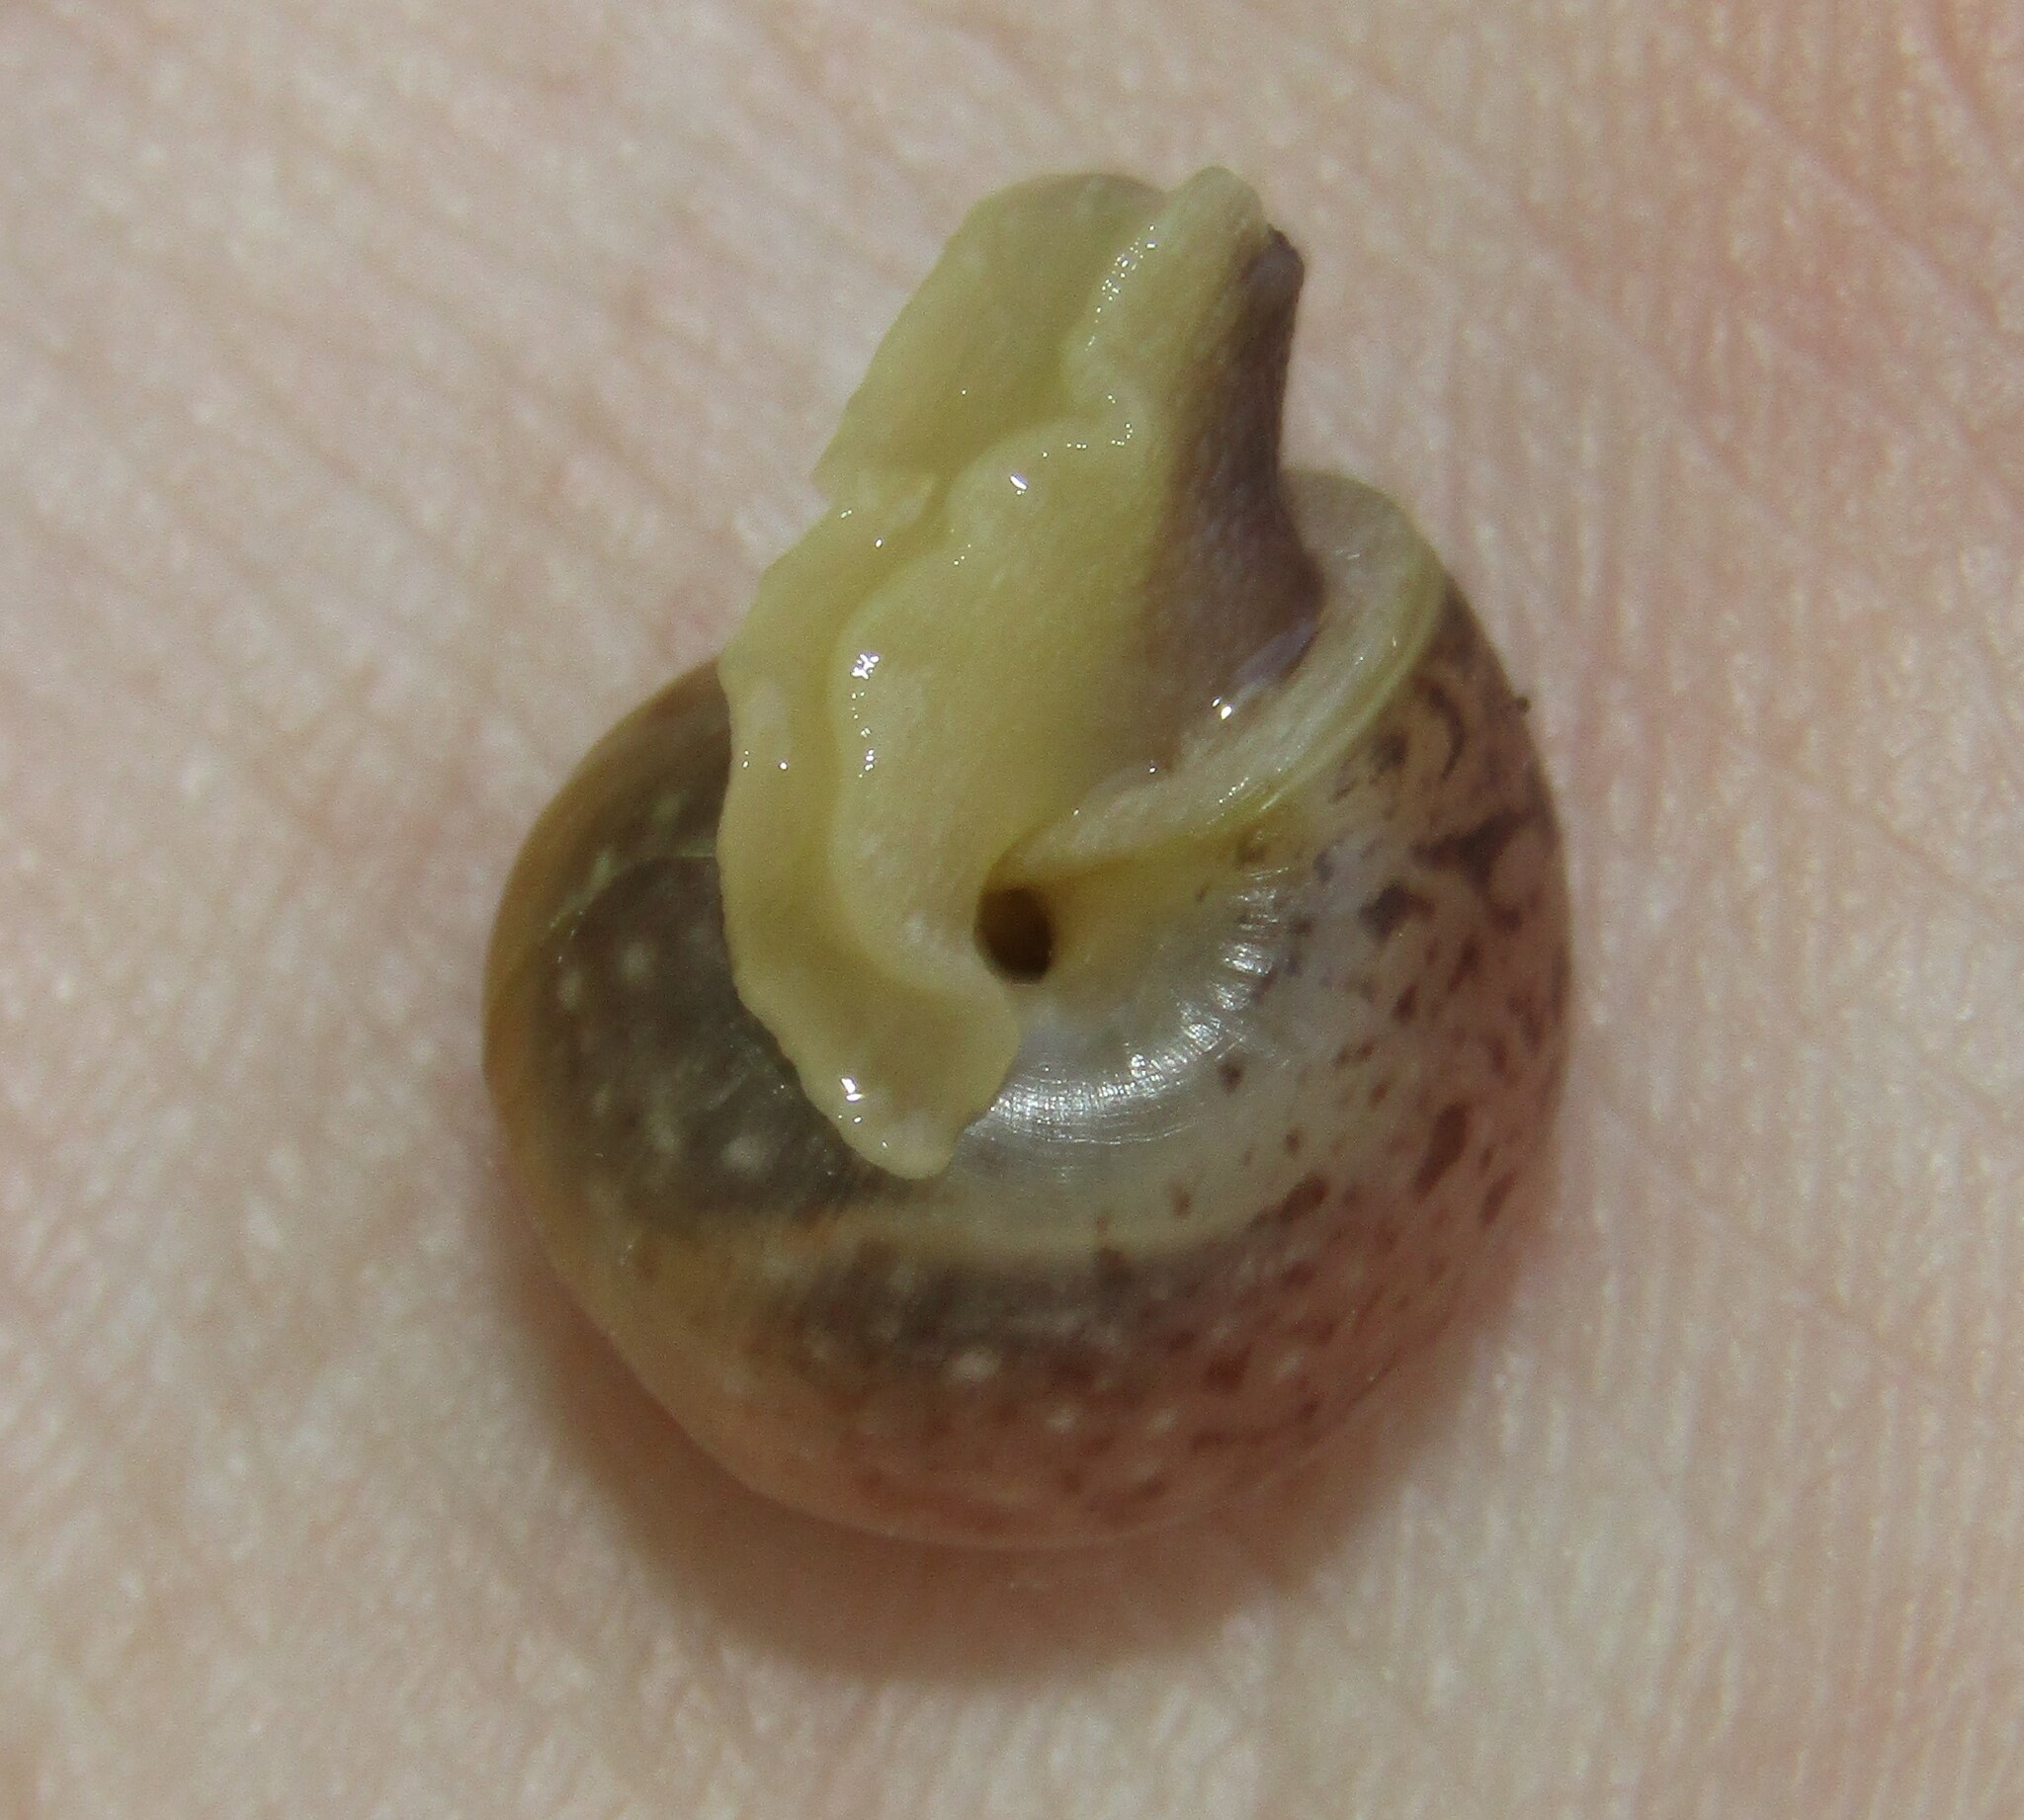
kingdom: Animalia
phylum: Mollusca
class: Gastropoda
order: Stylommatophora
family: Camaenidae
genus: Fruticicola
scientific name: Fruticicola fruticum
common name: Bush snail
